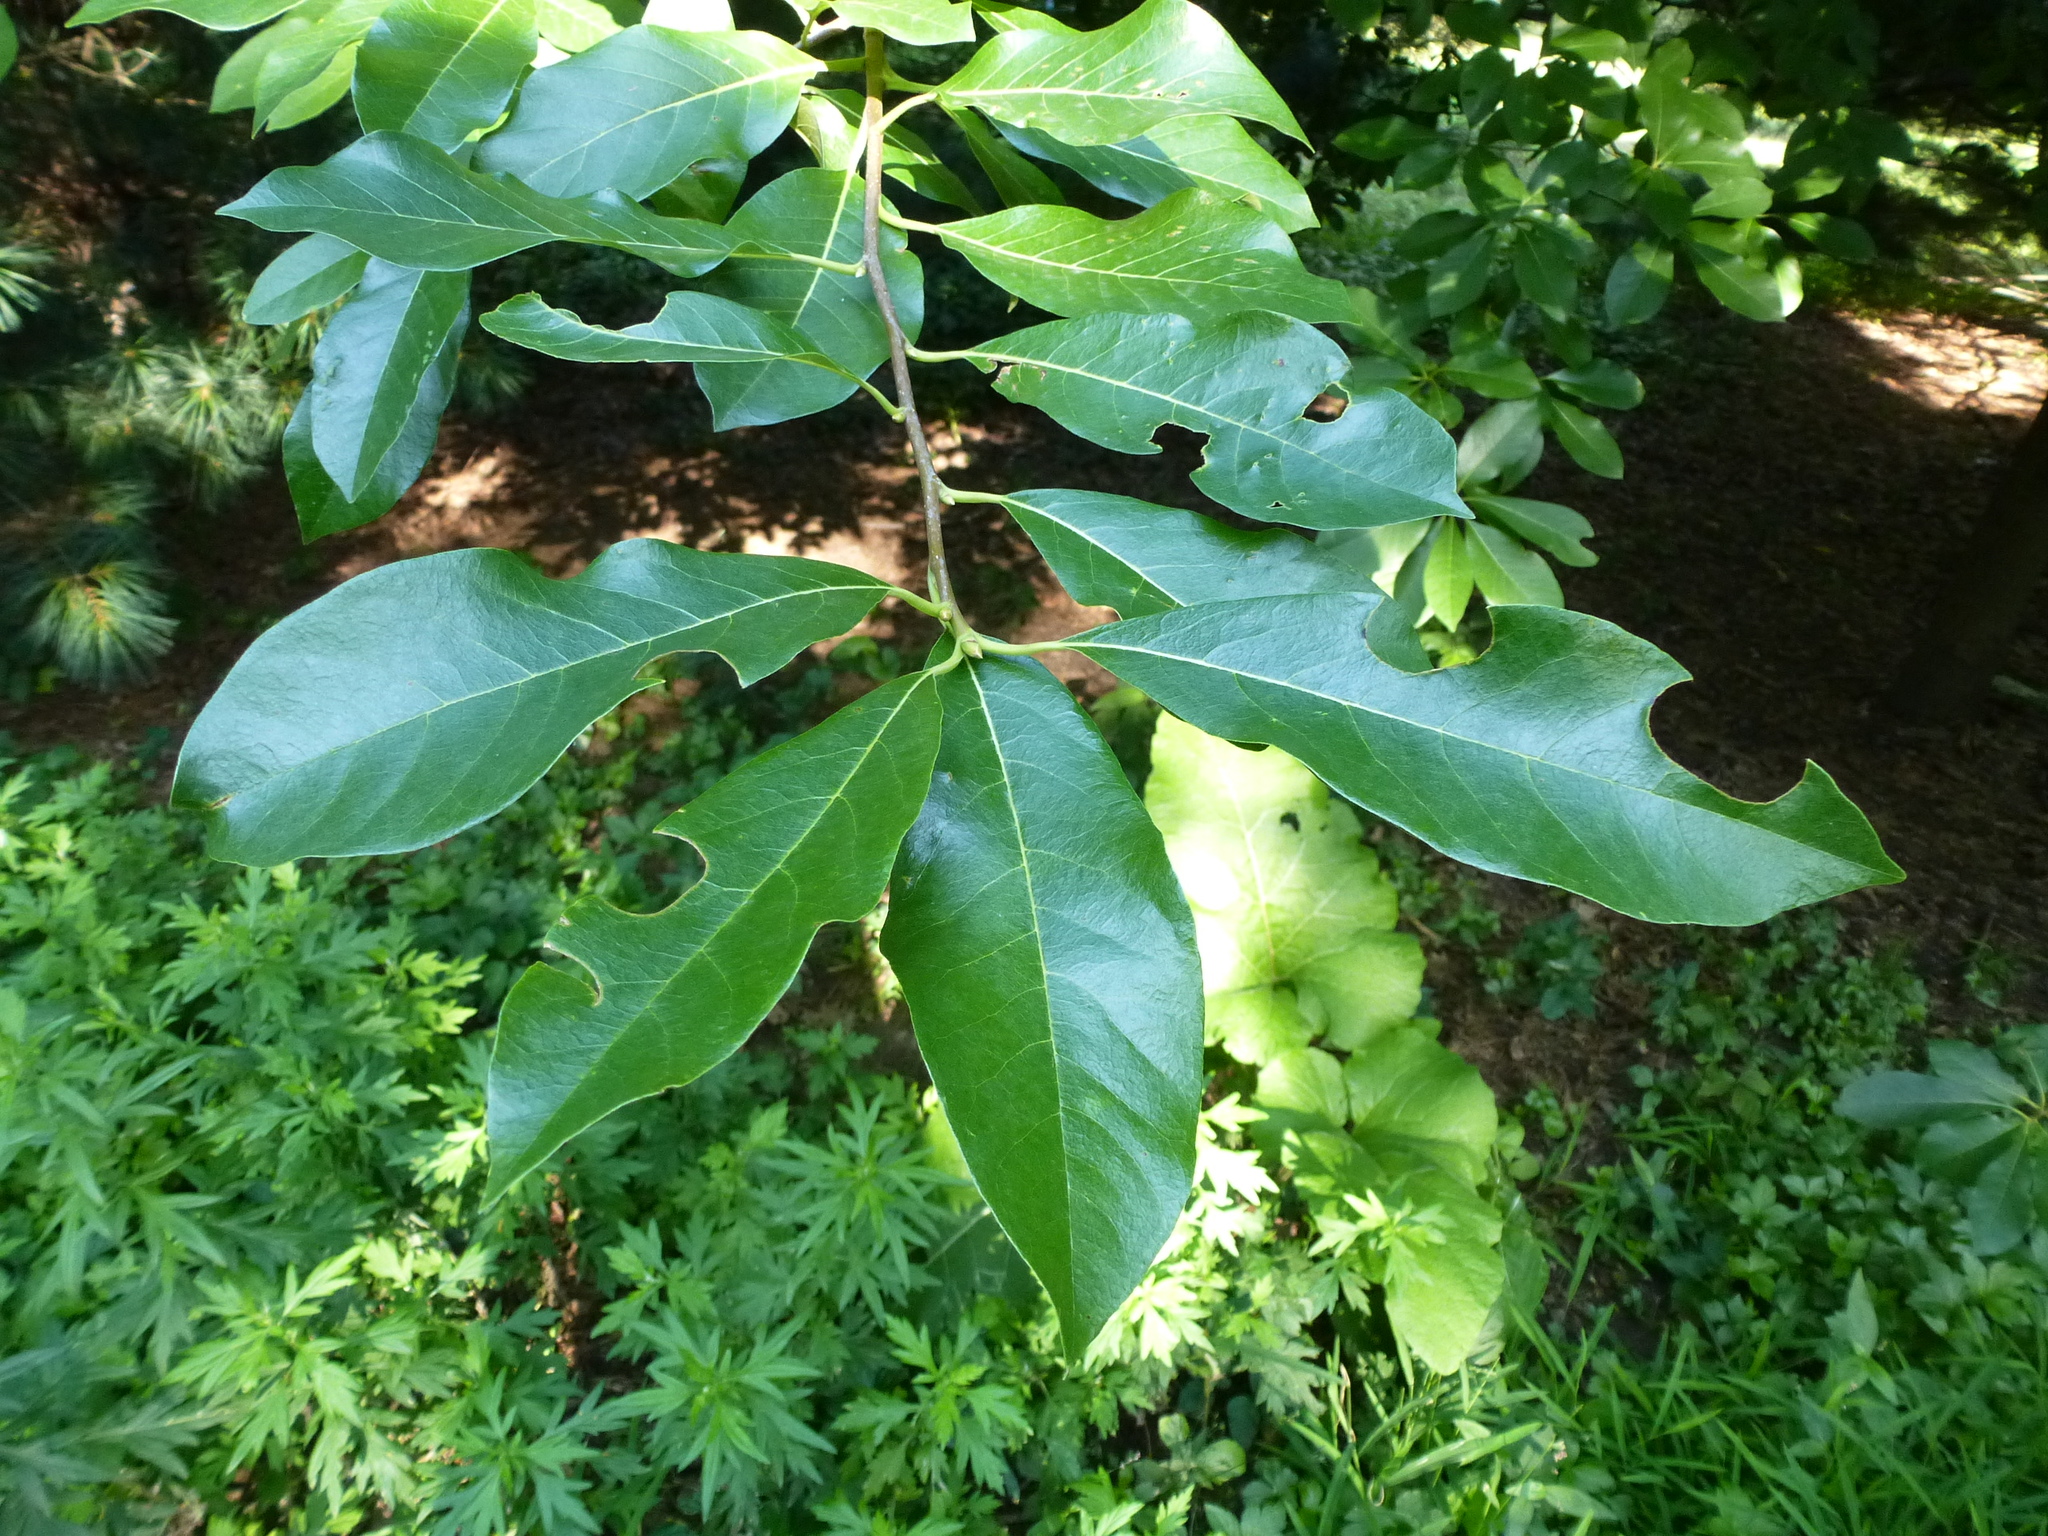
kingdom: Animalia
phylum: Arthropoda
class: Insecta
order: Hymenoptera
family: Megachilidae
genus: Megachile
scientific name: Megachile
